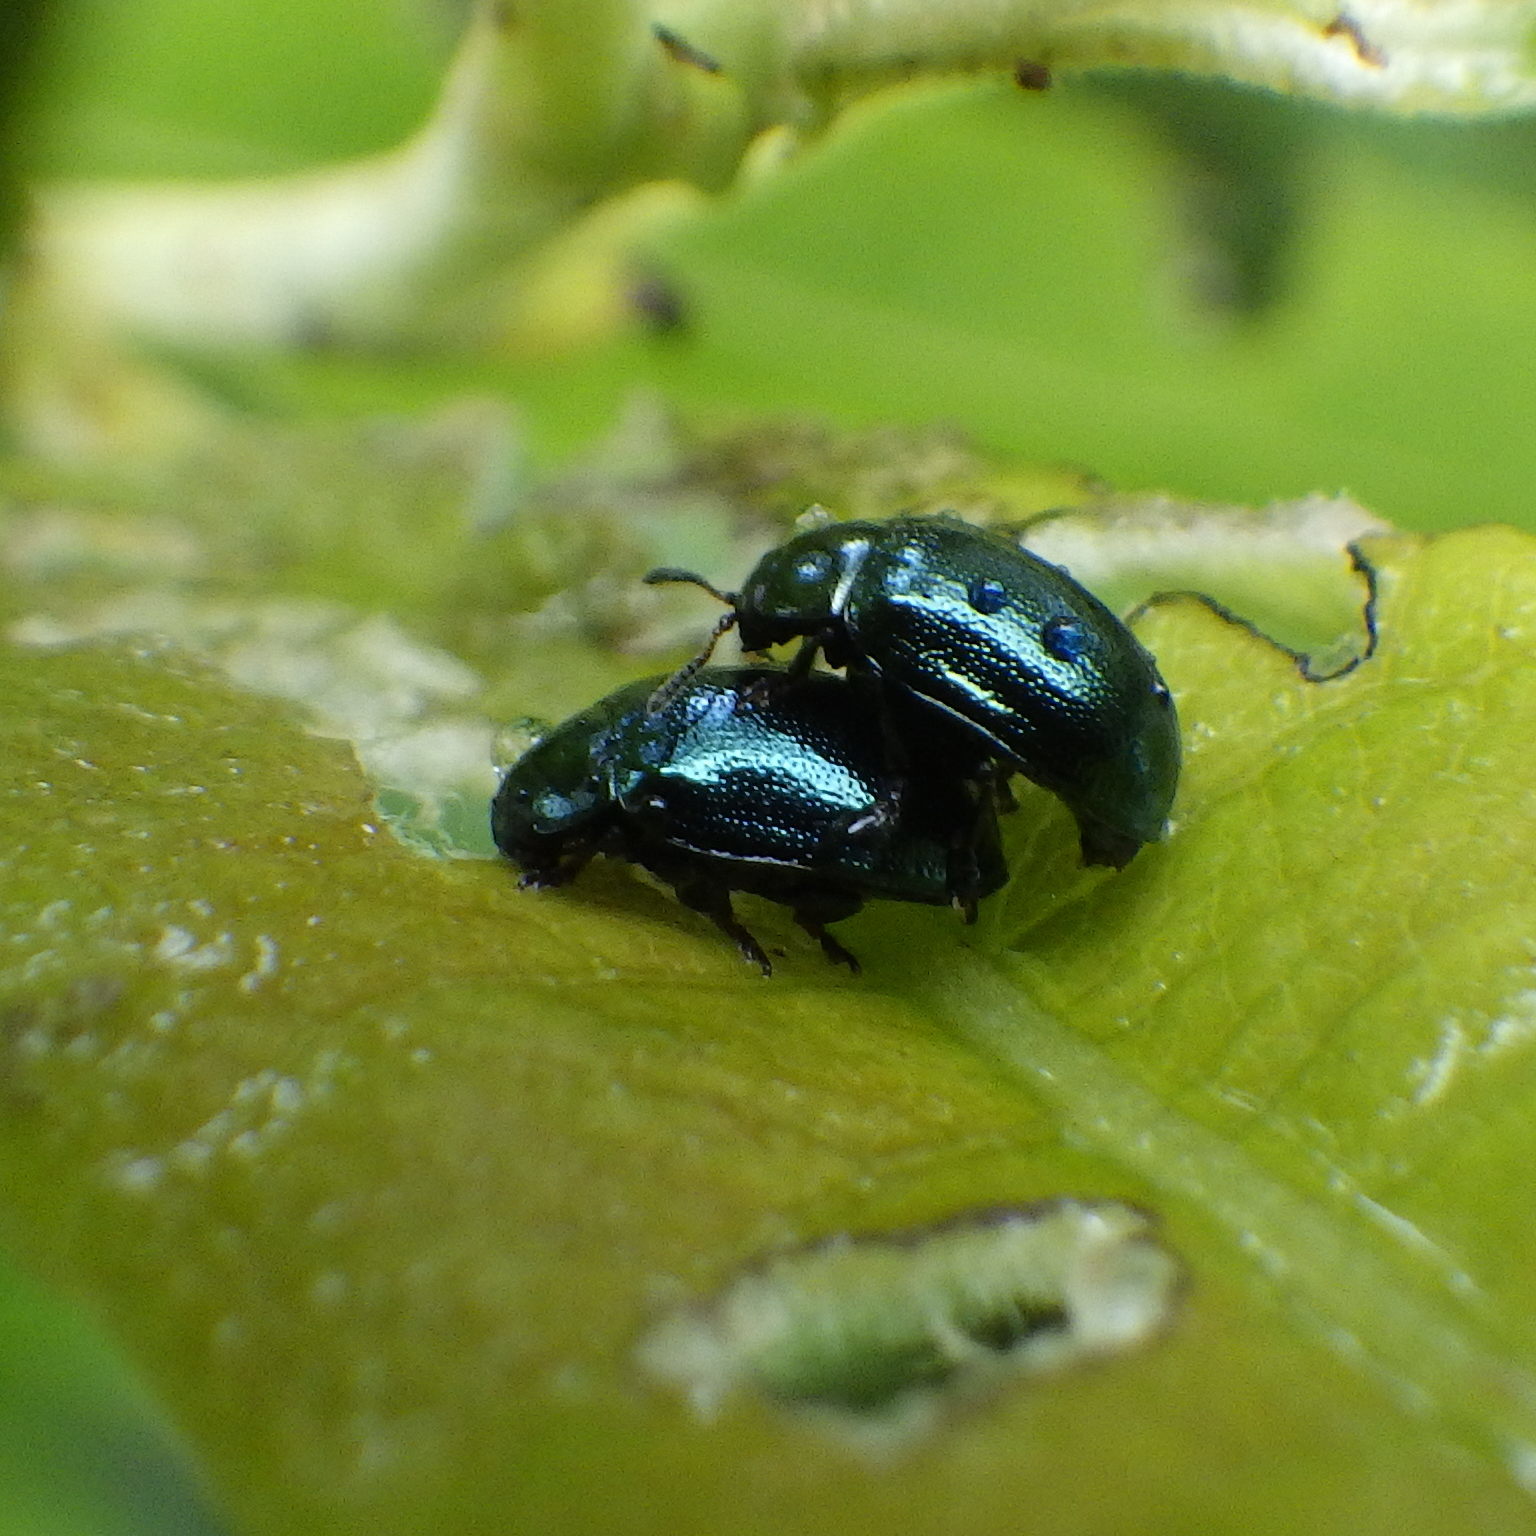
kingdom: Animalia
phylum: Arthropoda
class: Insecta
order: Coleoptera
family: Chrysomelidae
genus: Plagiodera
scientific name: Plagiodera versicolora
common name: Imported willow leaf beetle
